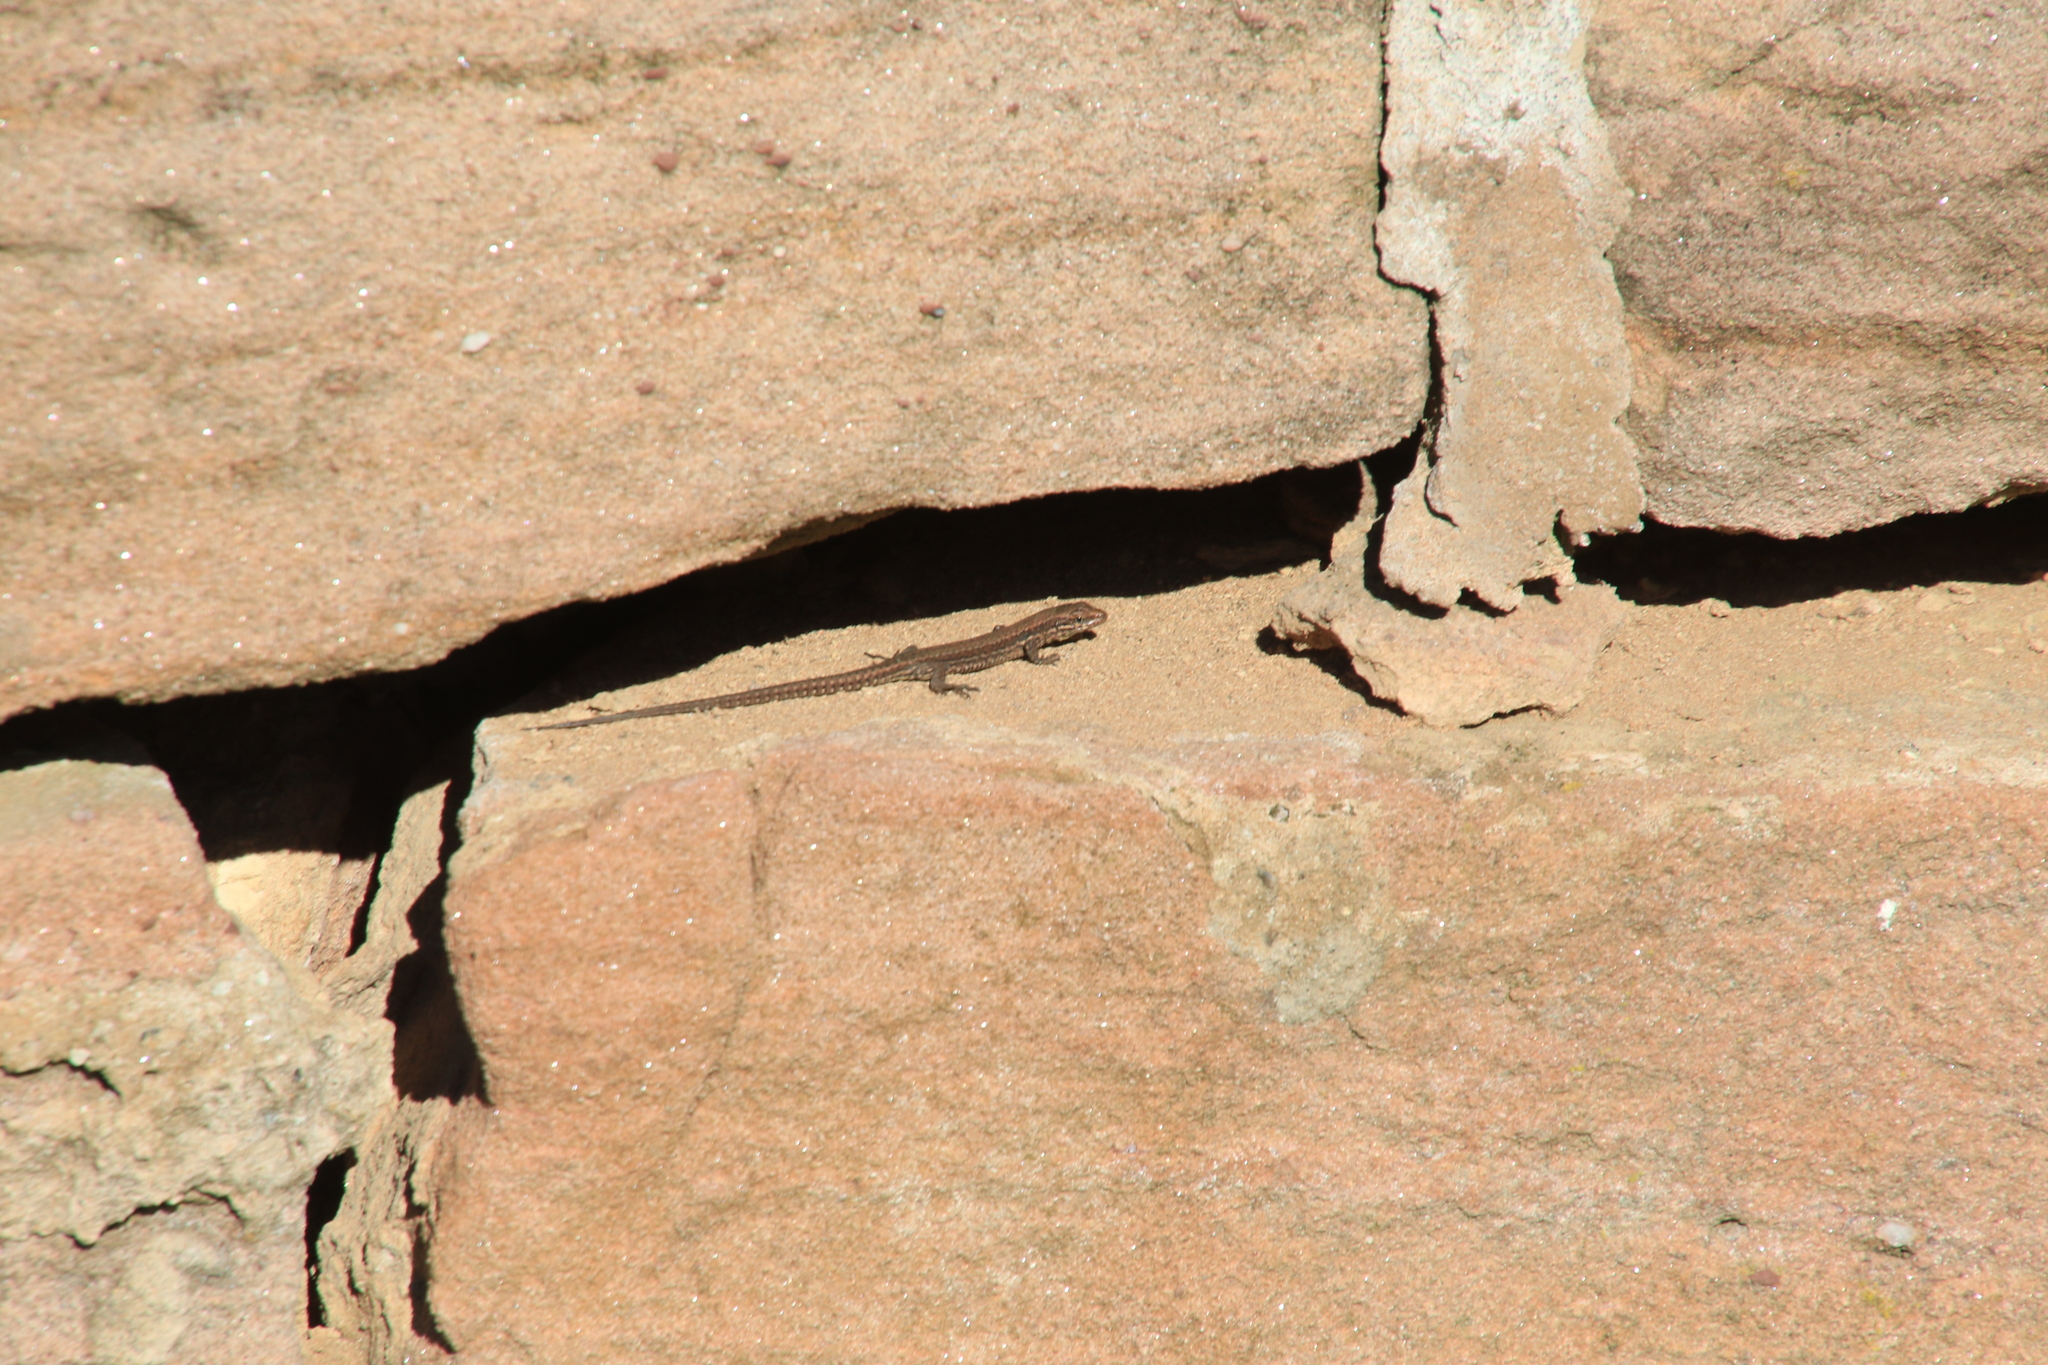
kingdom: Animalia
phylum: Chordata
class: Squamata
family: Lacertidae
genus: Podarcis
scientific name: Podarcis muralis
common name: Common wall lizard
